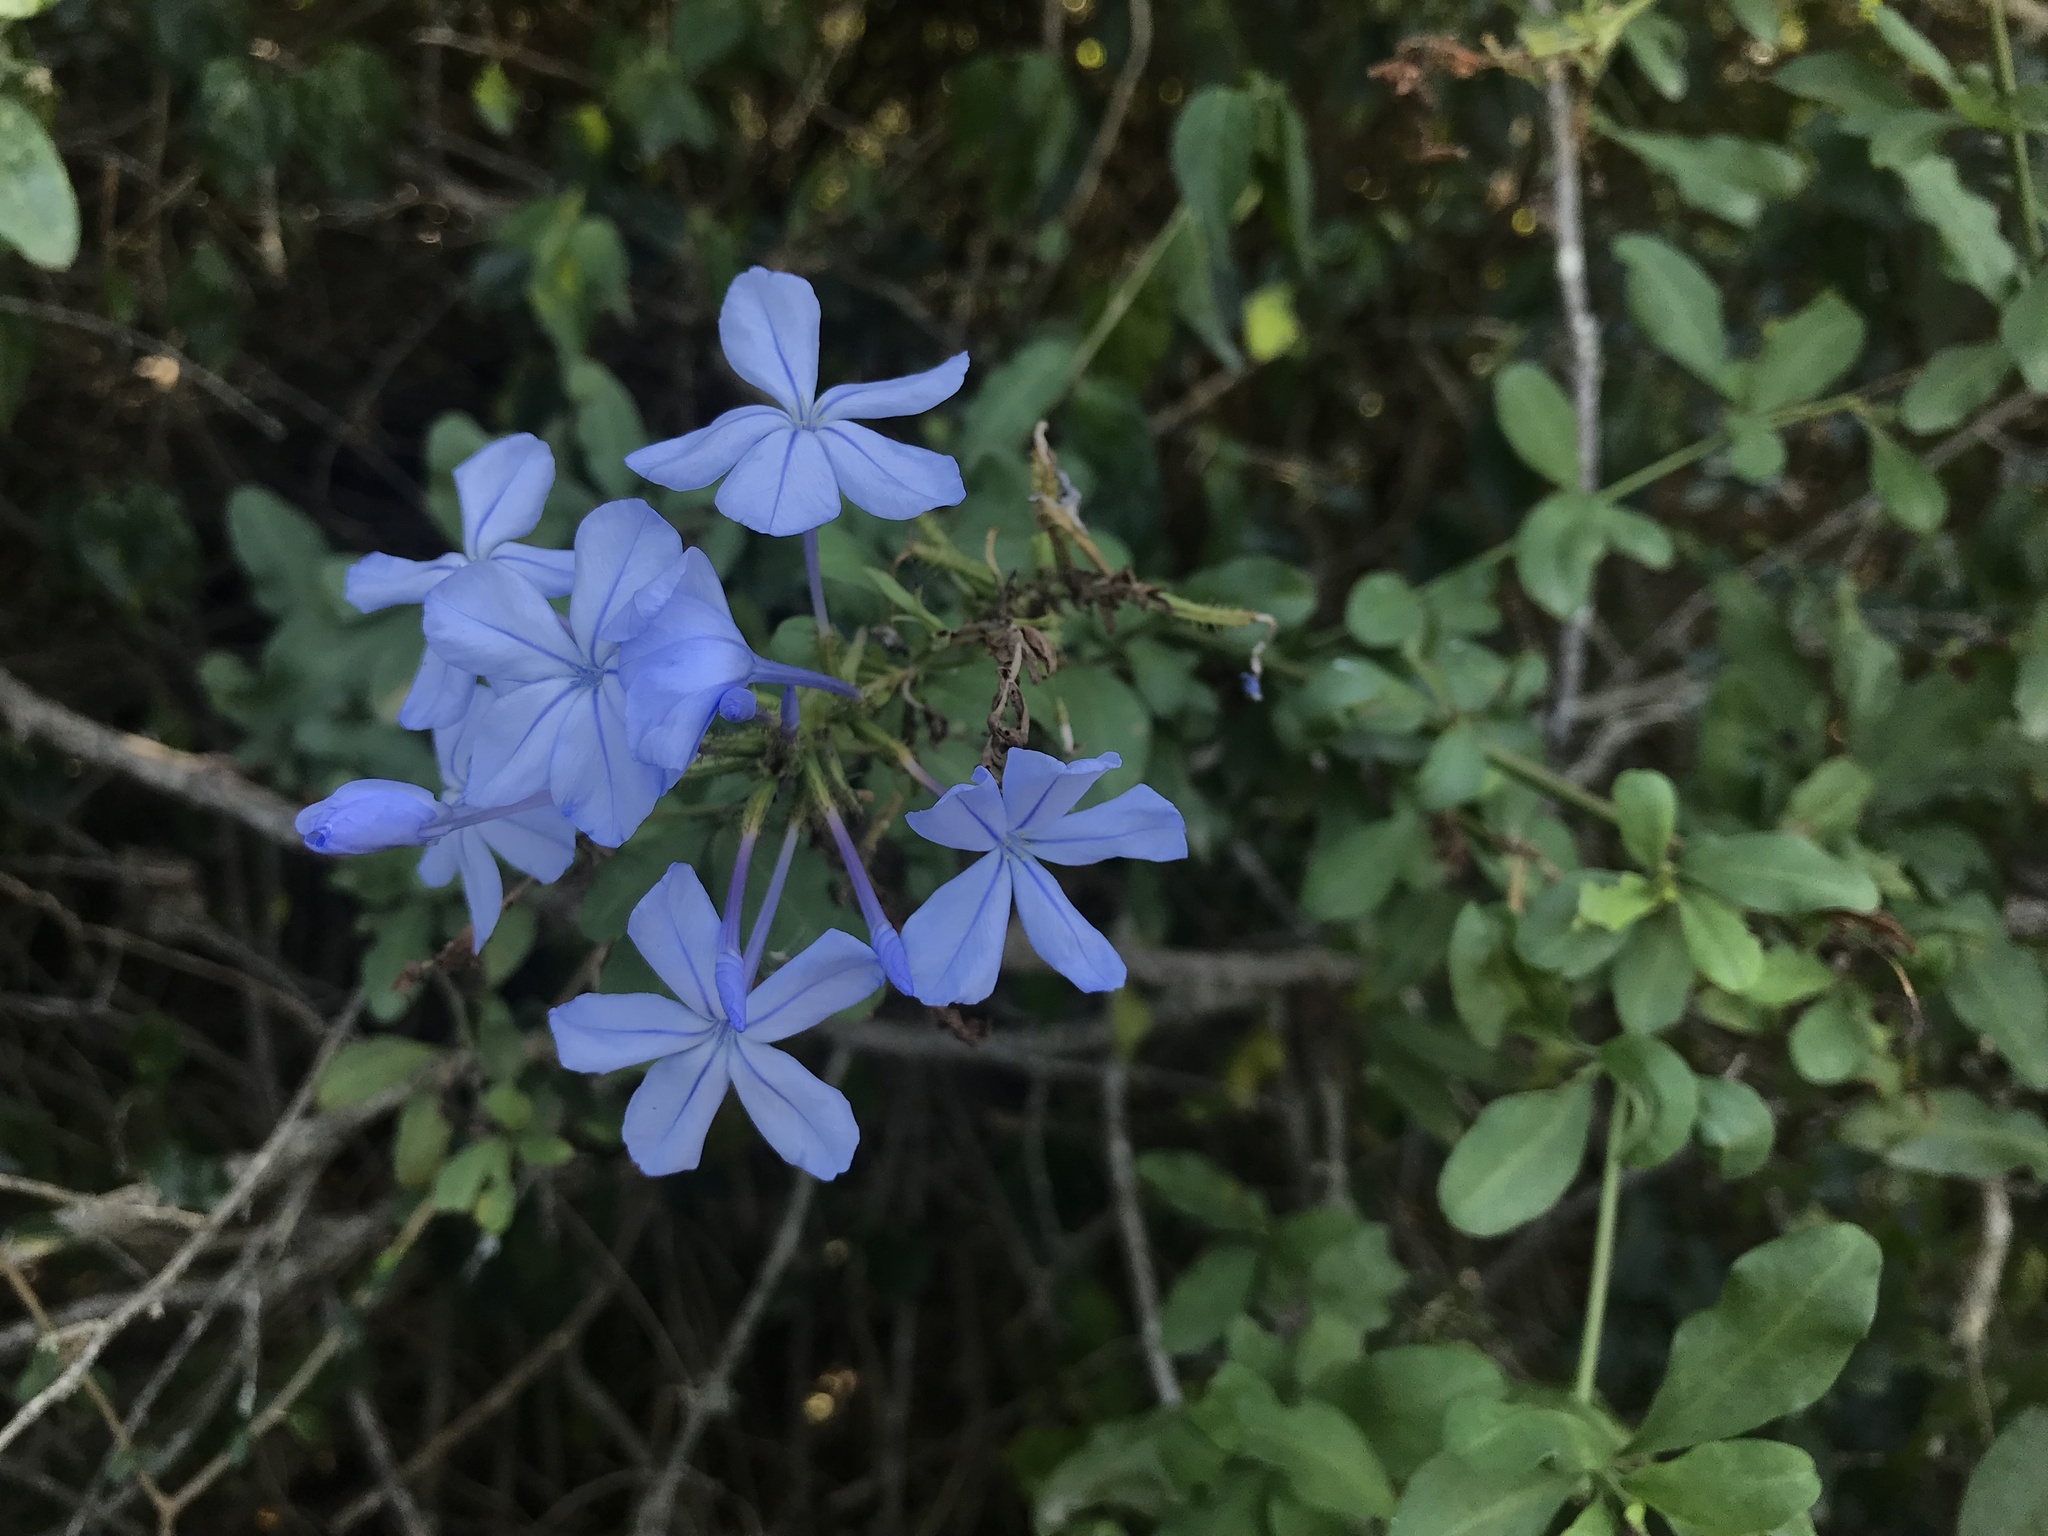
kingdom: Plantae
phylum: Tracheophyta
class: Magnoliopsida
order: Caryophyllales
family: Plumbaginaceae
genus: Plumbago
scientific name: Plumbago auriculata
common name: Cape leadwort
